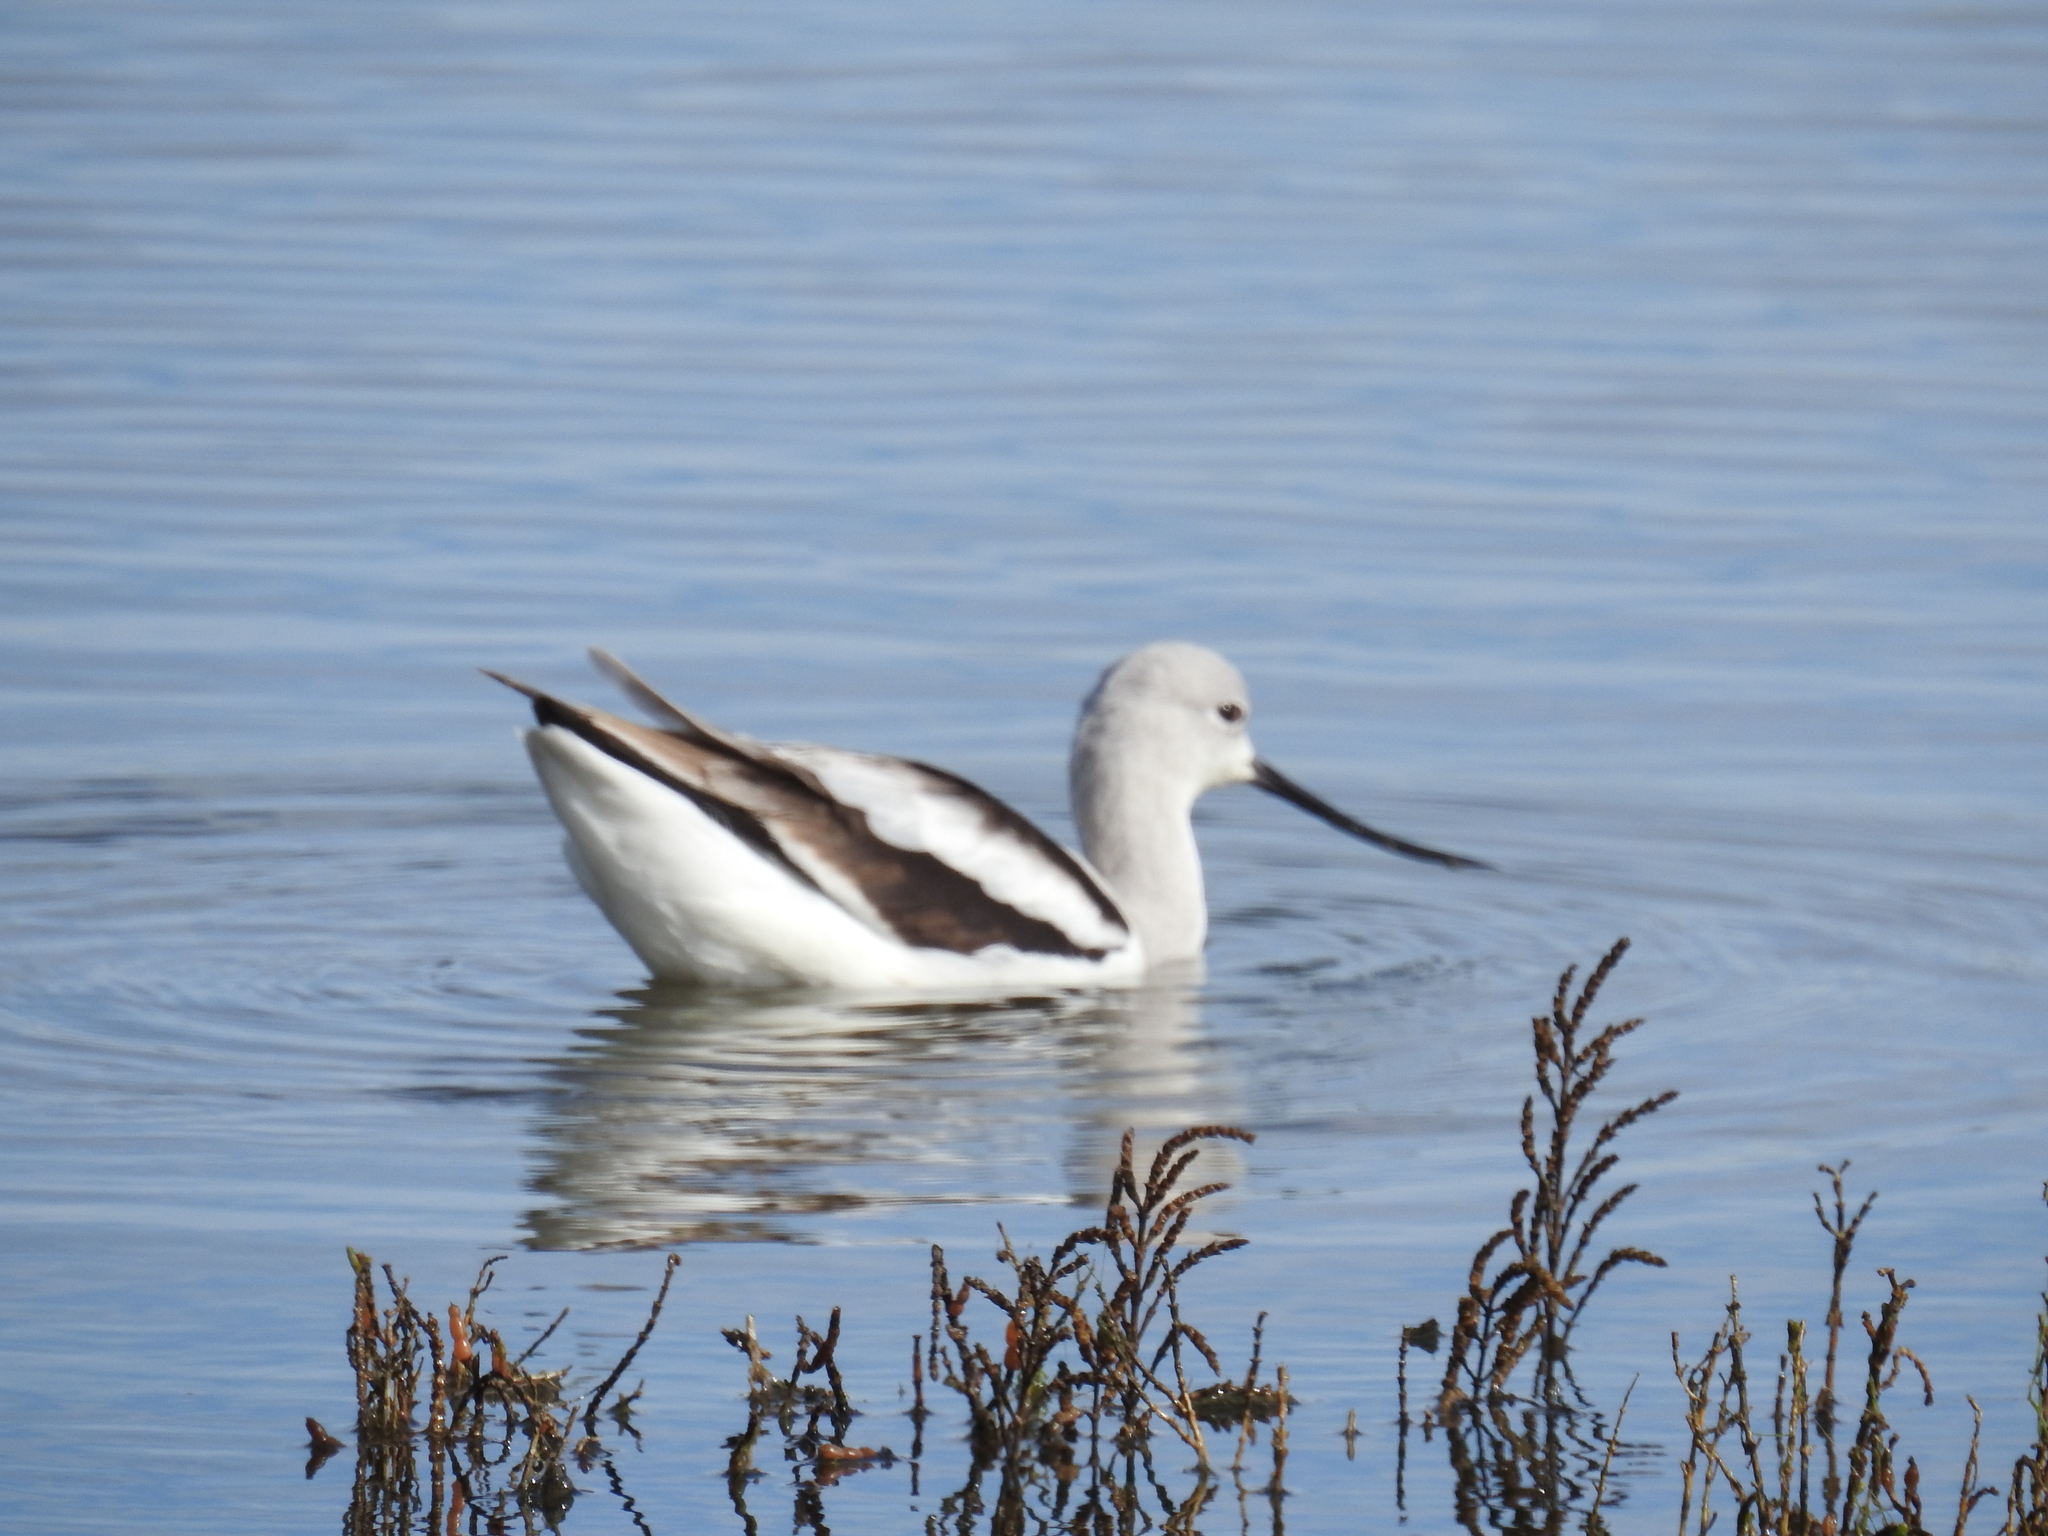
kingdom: Animalia
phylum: Chordata
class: Aves
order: Charadriiformes
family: Recurvirostridae
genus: Recurvirostra
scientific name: Recurvirostra americana
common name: American avocet
